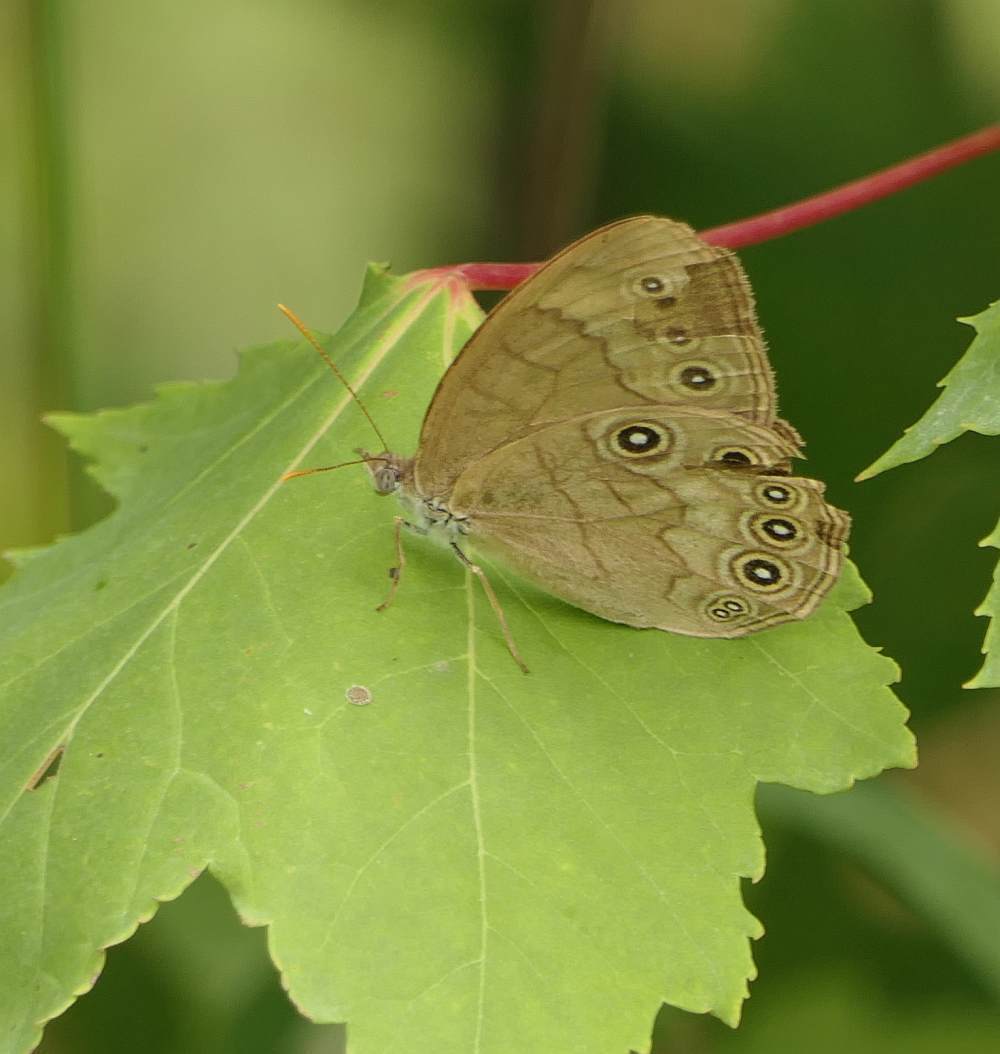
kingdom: Animalia
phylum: Arthropoda
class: Insecta
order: Lepidoptera
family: Nymphalidae
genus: Lethe
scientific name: Lethe eurydice
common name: Eyed brown
